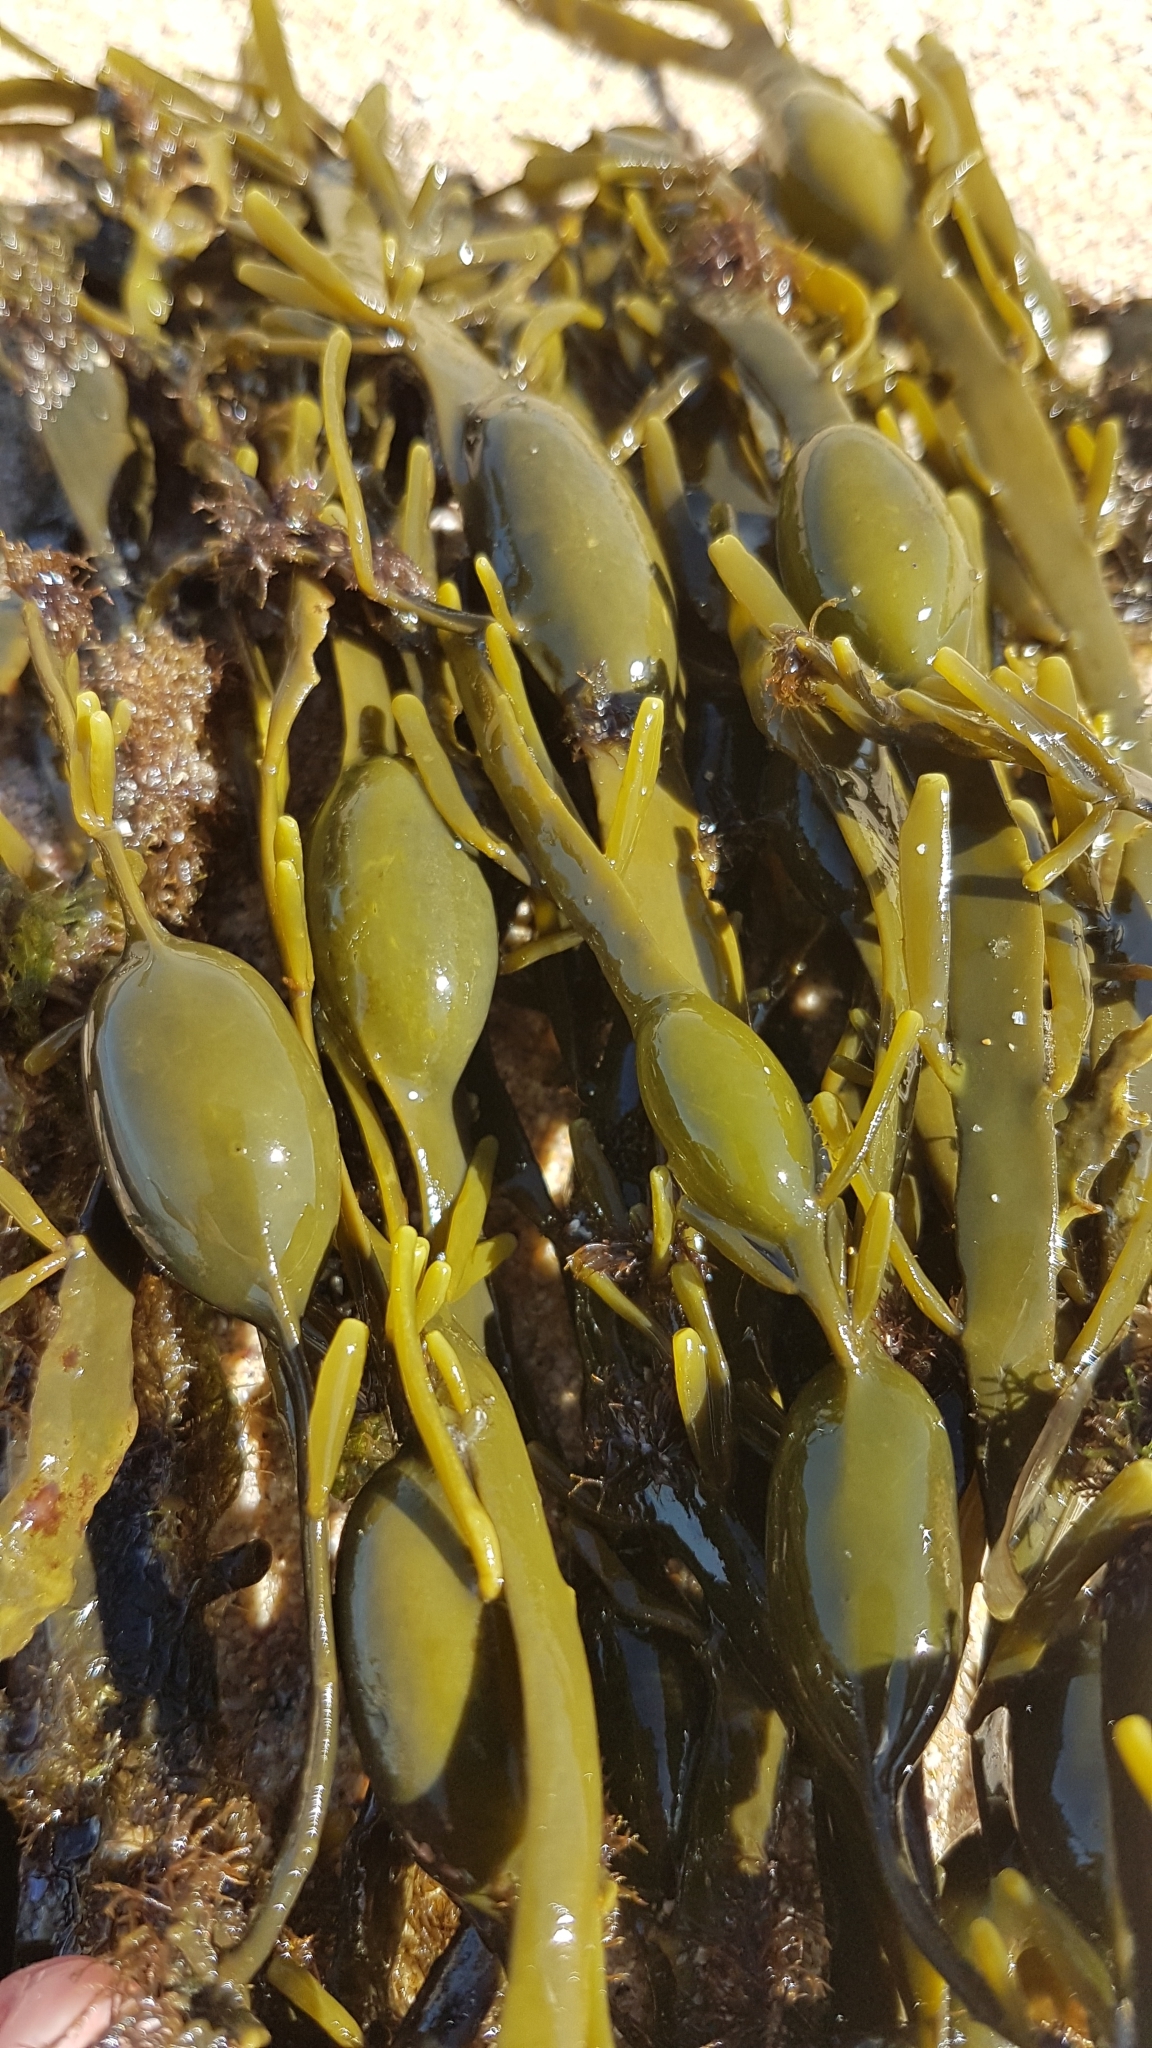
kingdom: Chromista
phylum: Ochrophyta
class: Phaeophyceae
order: Fucales
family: Fucaceae
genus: Ascophyllum
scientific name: Ascophyllum nodosum
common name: Knotted wrack
